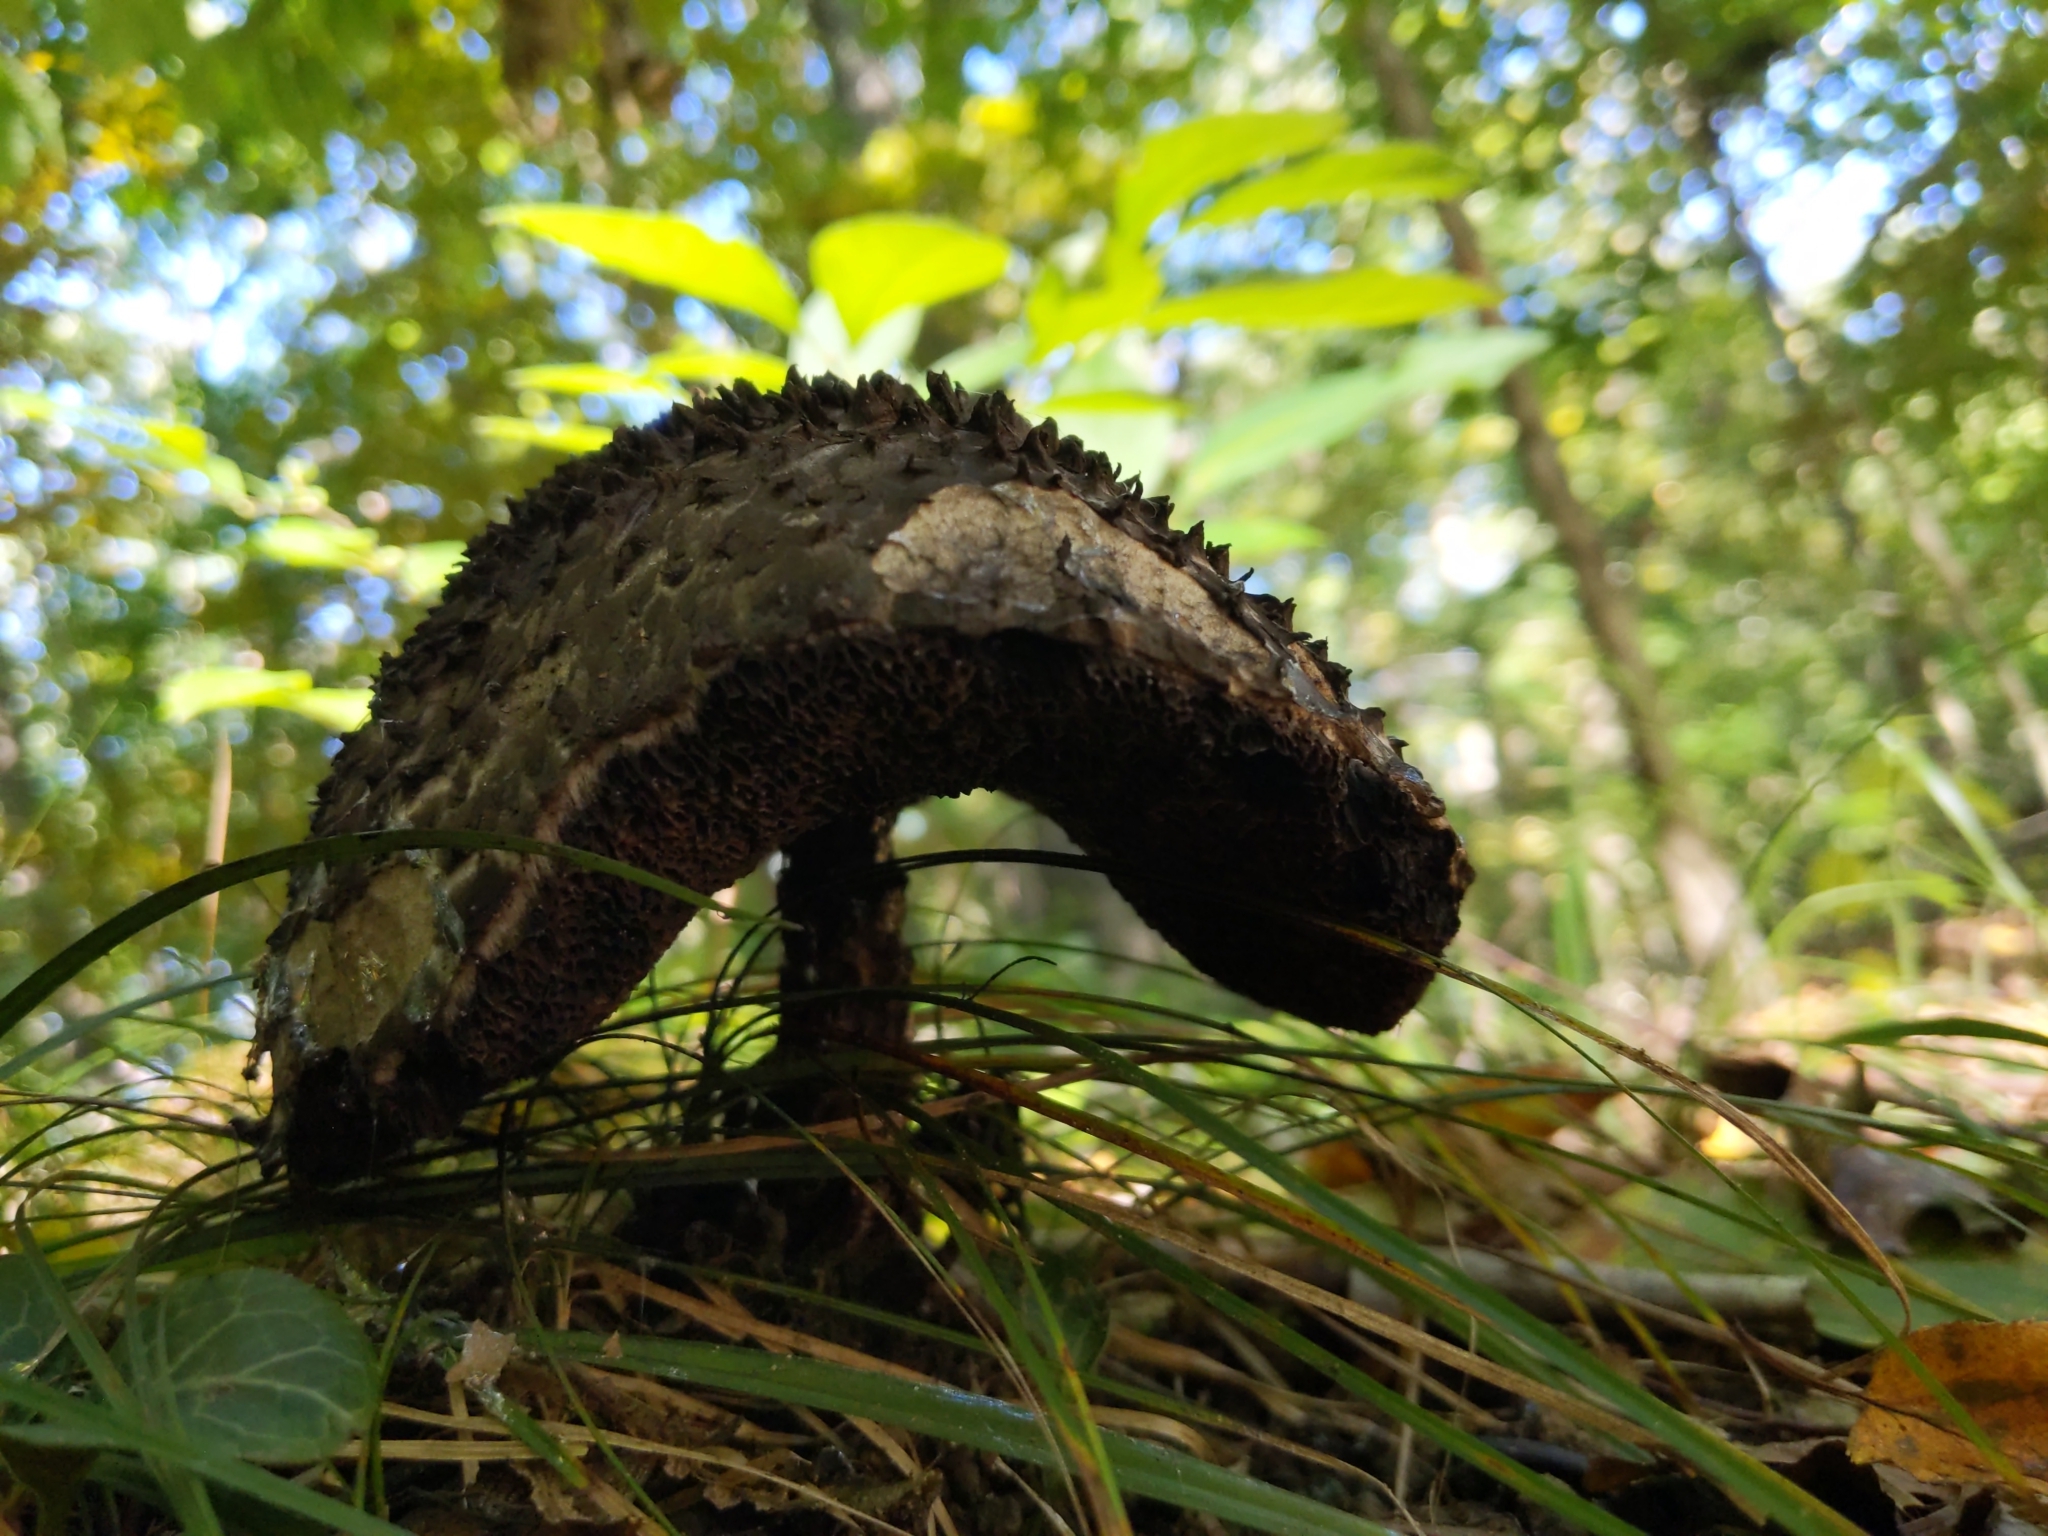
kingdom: Fungi
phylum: Basidiomycota
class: Agaricomycetes
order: Boletales
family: Boletaceae
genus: Strobilomyces
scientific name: Strobilomyces strobilaceus
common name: Old man of the woods
